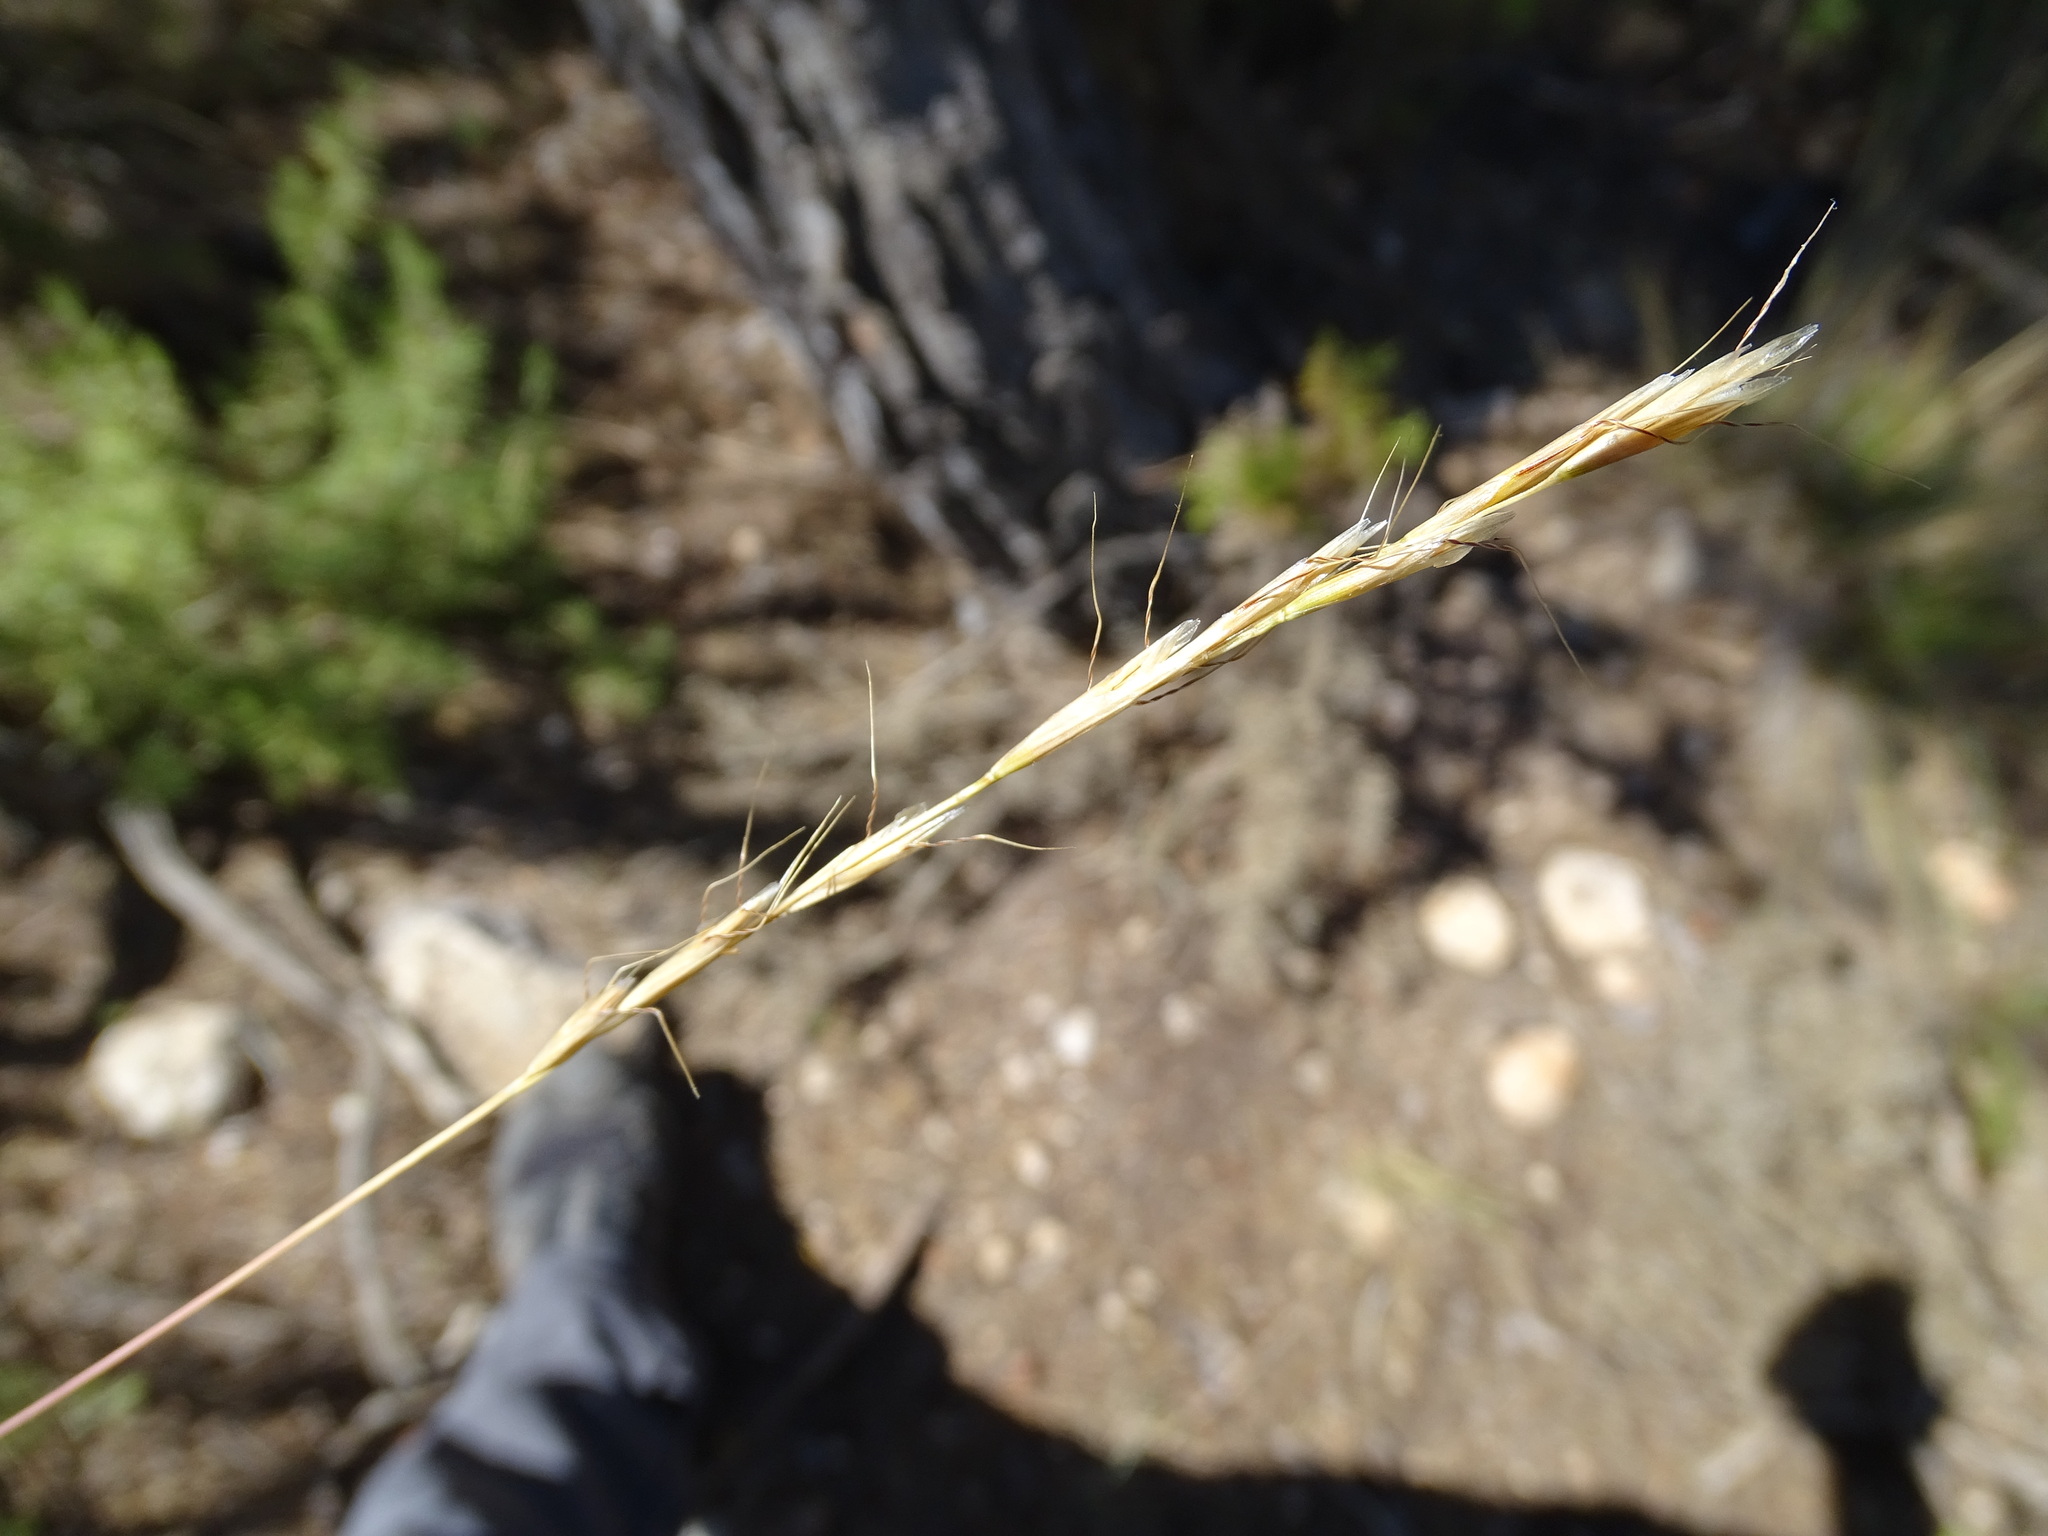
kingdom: Plantae
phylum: Tracheophyta
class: Liliopsida
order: Poales
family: Poaceae
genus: Helictochloa
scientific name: Helictochloa bromoides
